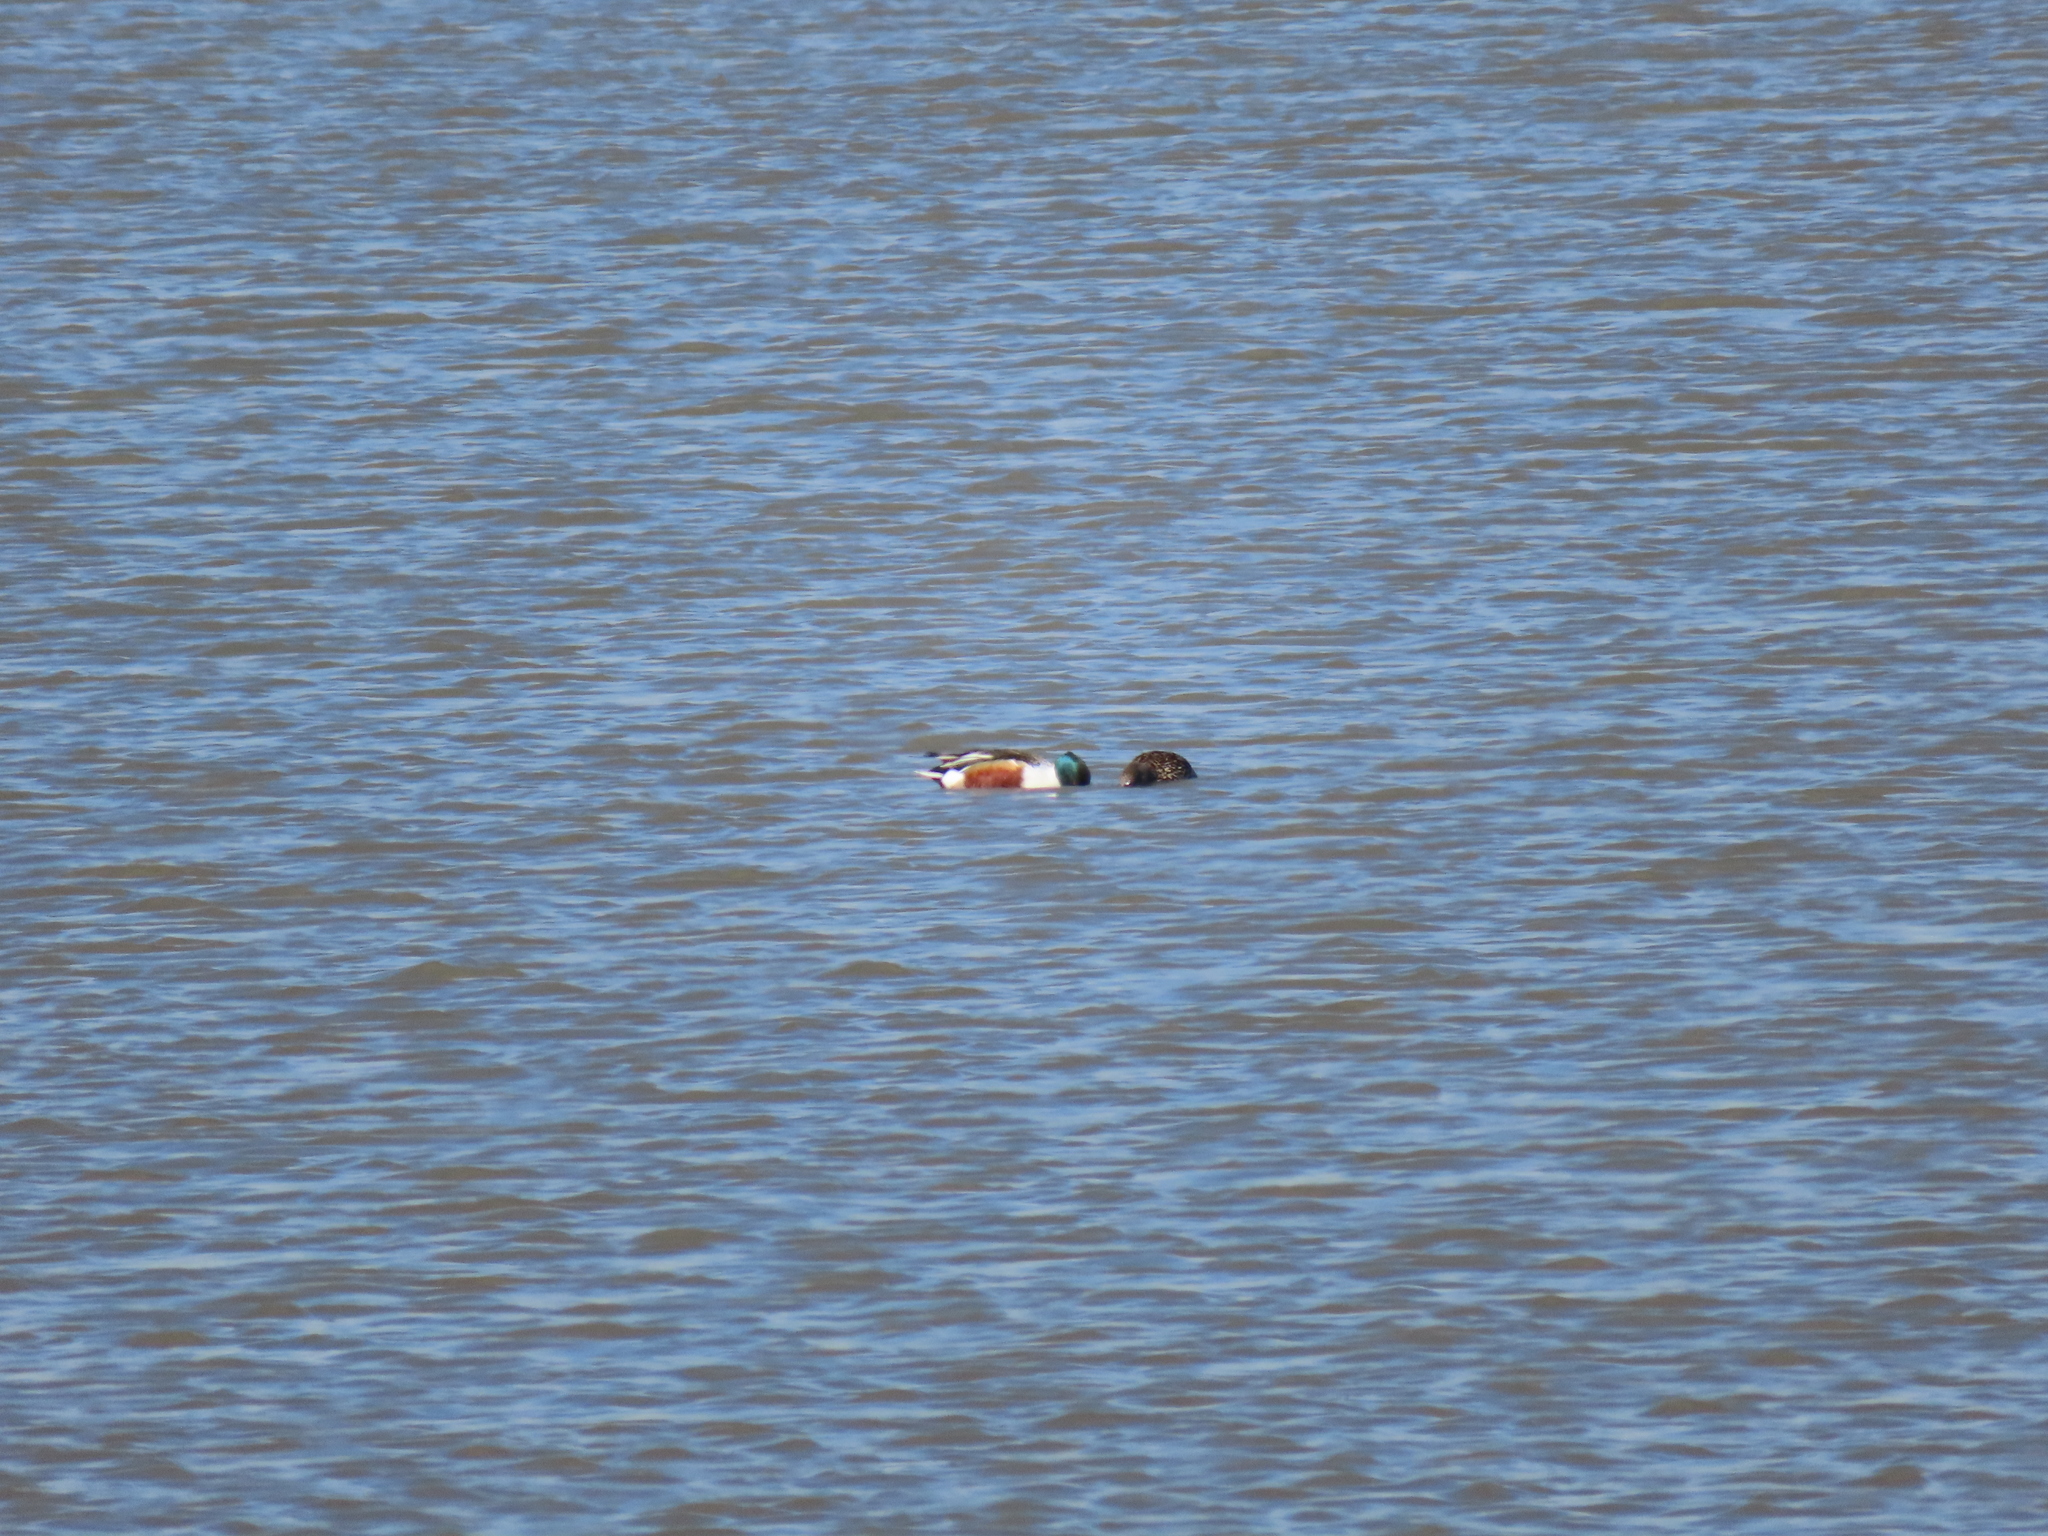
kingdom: Animalia
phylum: Chordata
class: Aves
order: Anseriformes
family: Anatidae
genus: Spatula
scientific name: Spatula clypeata
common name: Northern shoveler
